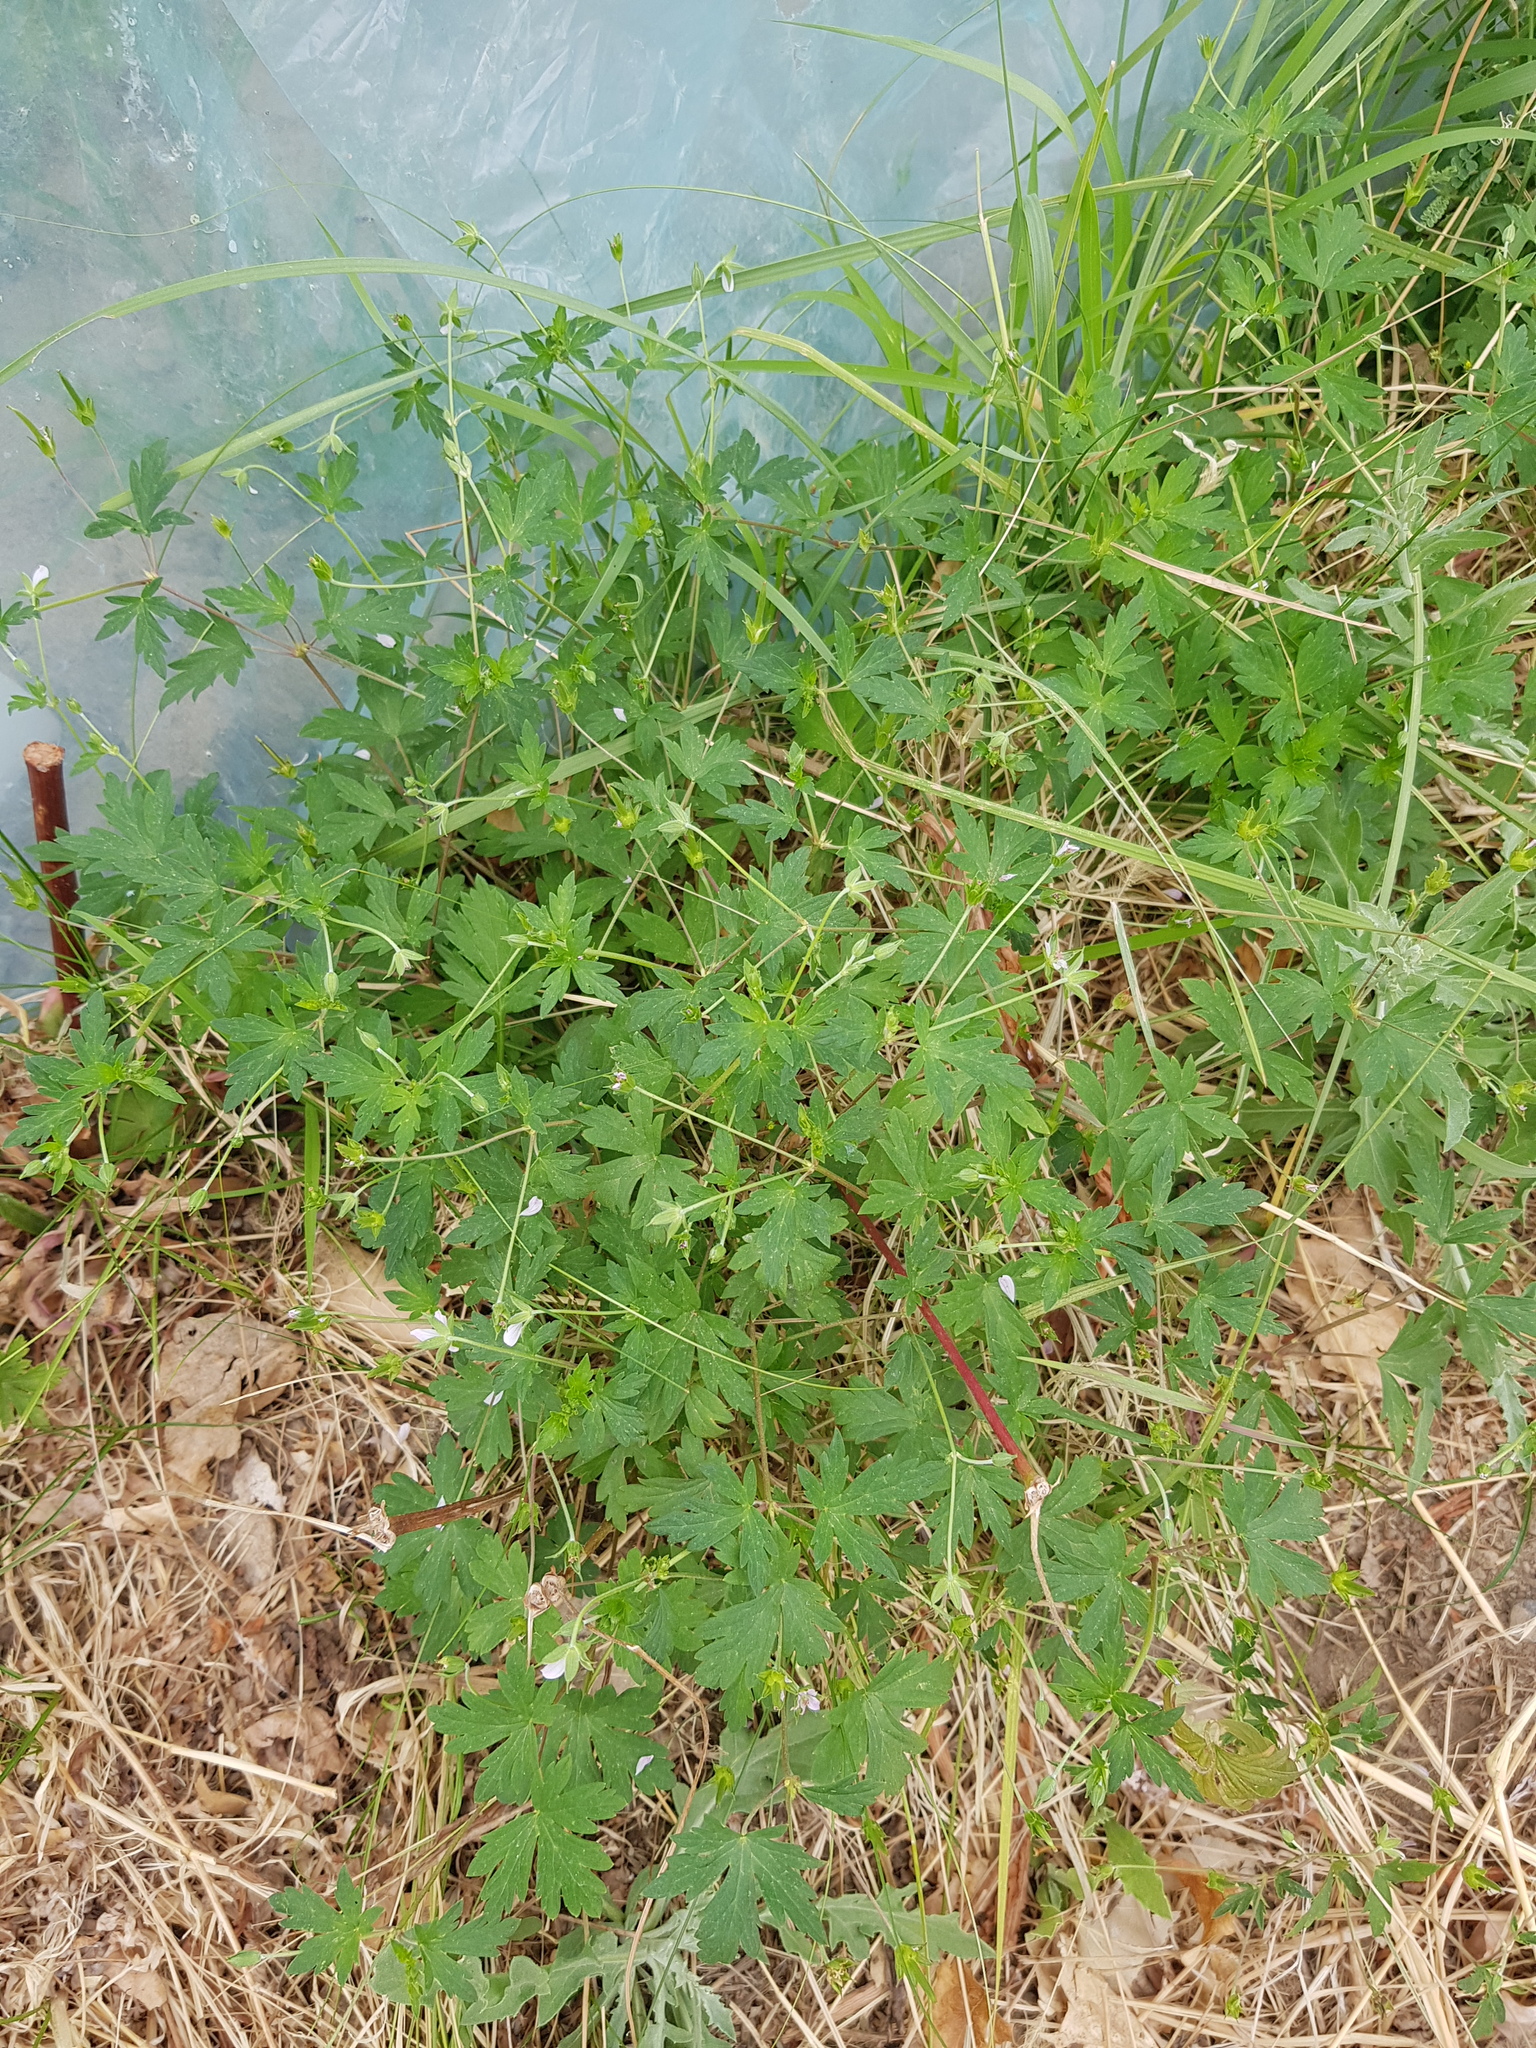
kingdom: Plantae
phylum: Tracheophyta
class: Magnoliopsida
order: Geraniales
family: Geraniaceae
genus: Geranium
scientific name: Geranium sibiricum
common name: Siberian crane's-bill
